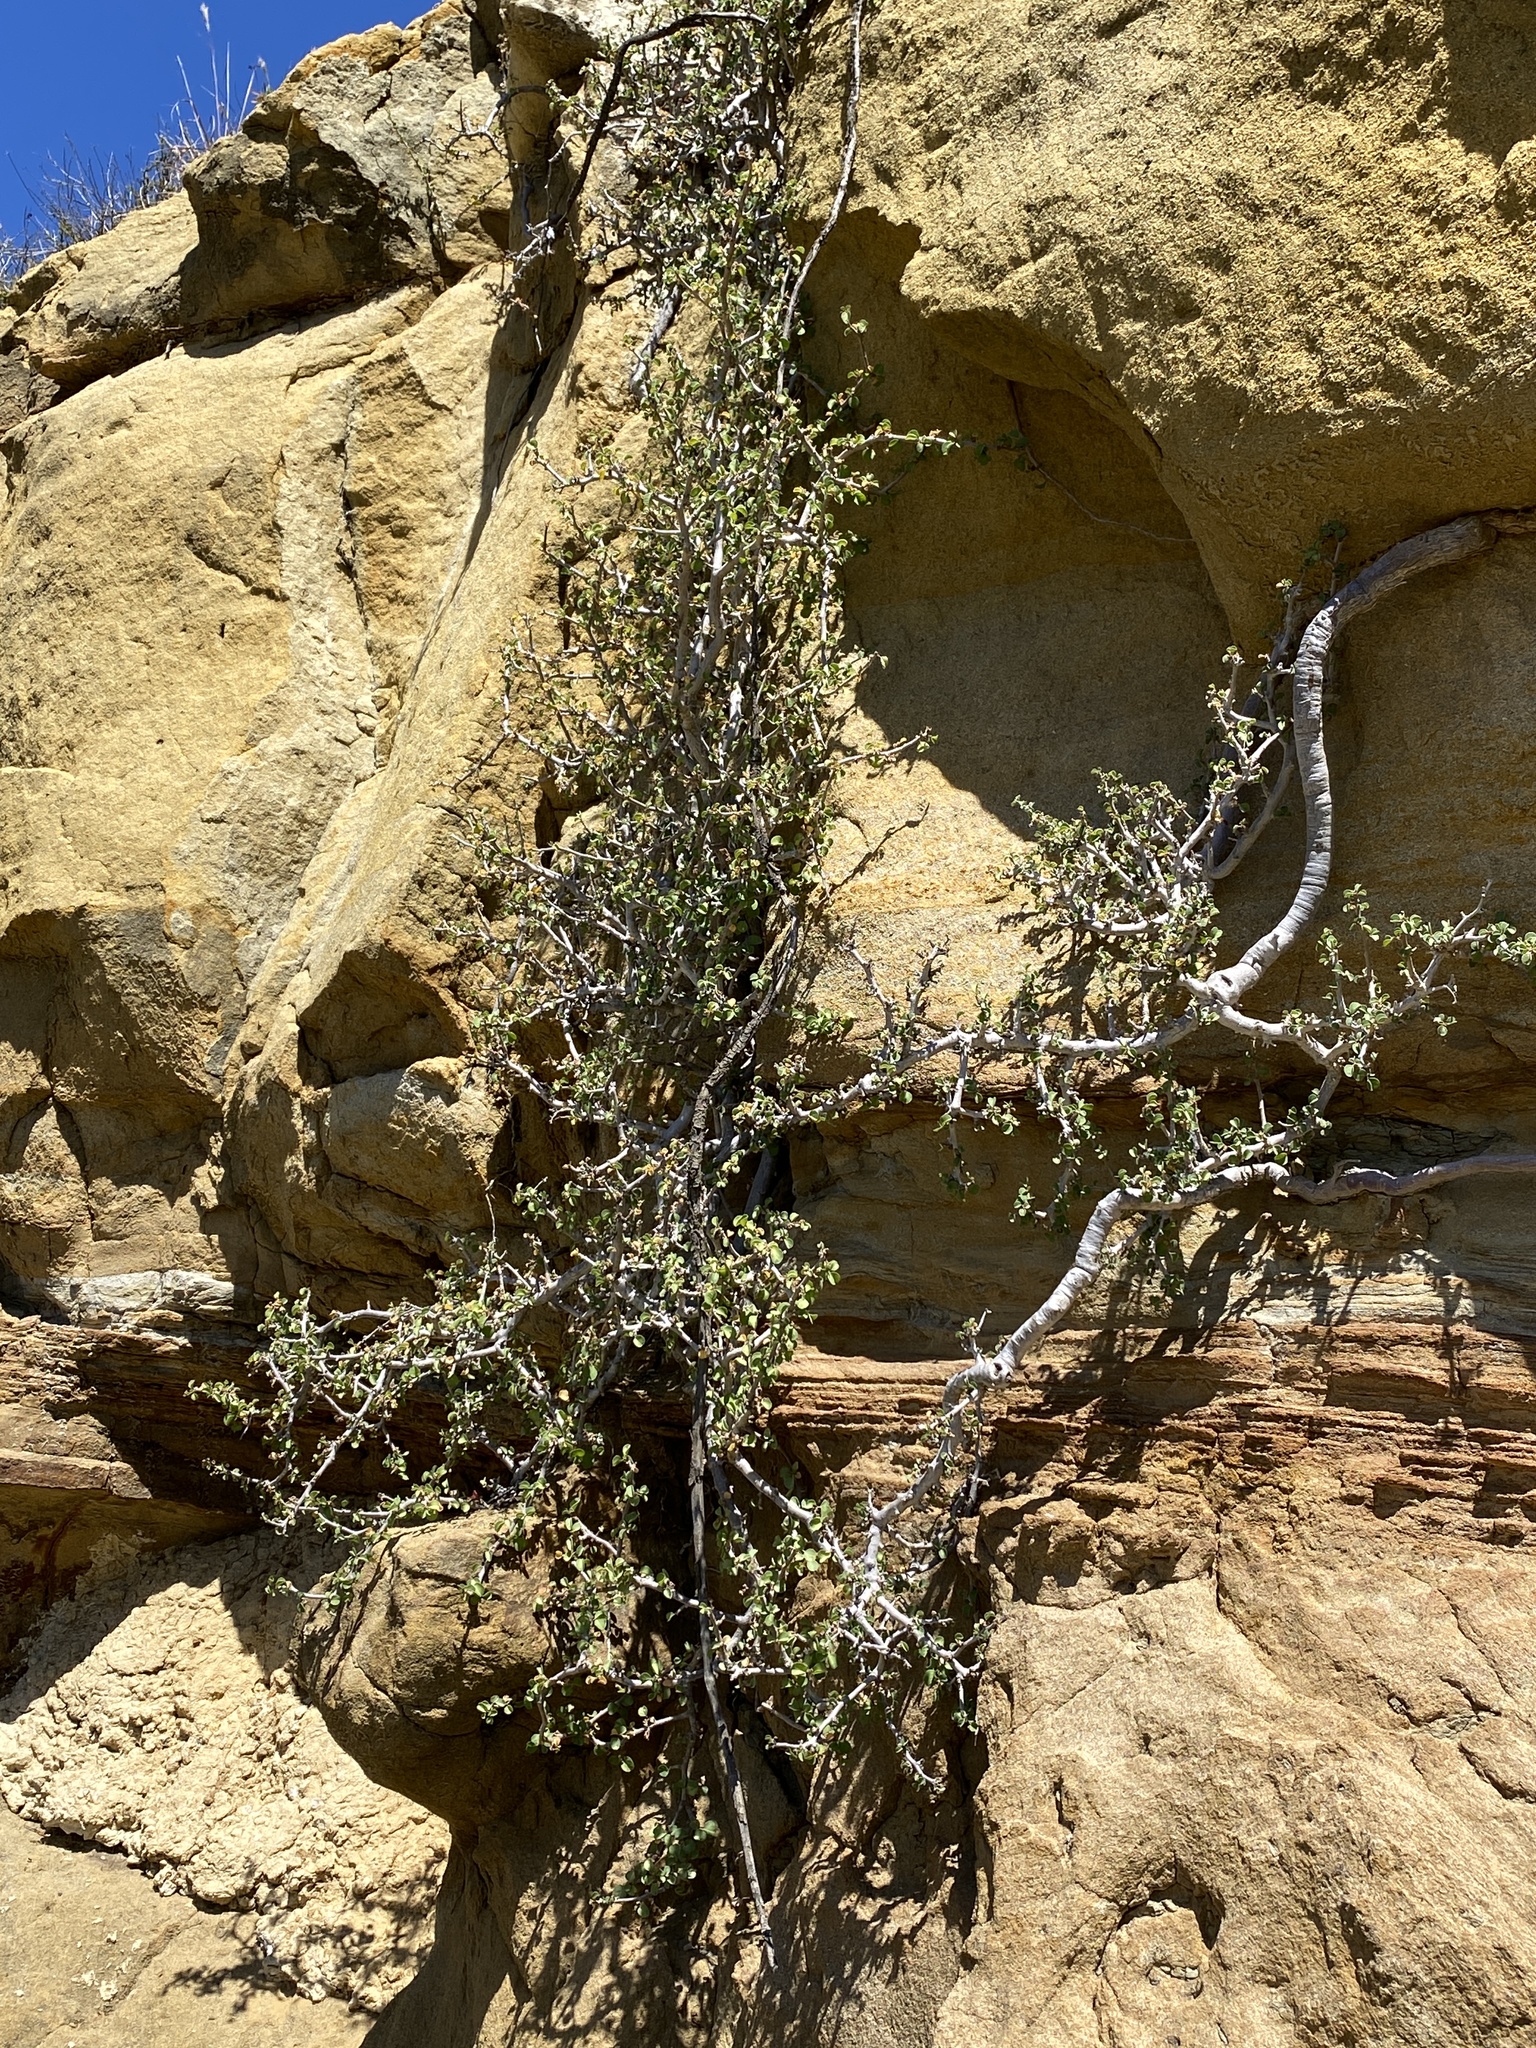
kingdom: Plantae
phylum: Tracheophyta
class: Magnoliopsida
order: Malpighiales
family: Euphorbiaceae
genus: Euphorbia
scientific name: Euphorbia misera
